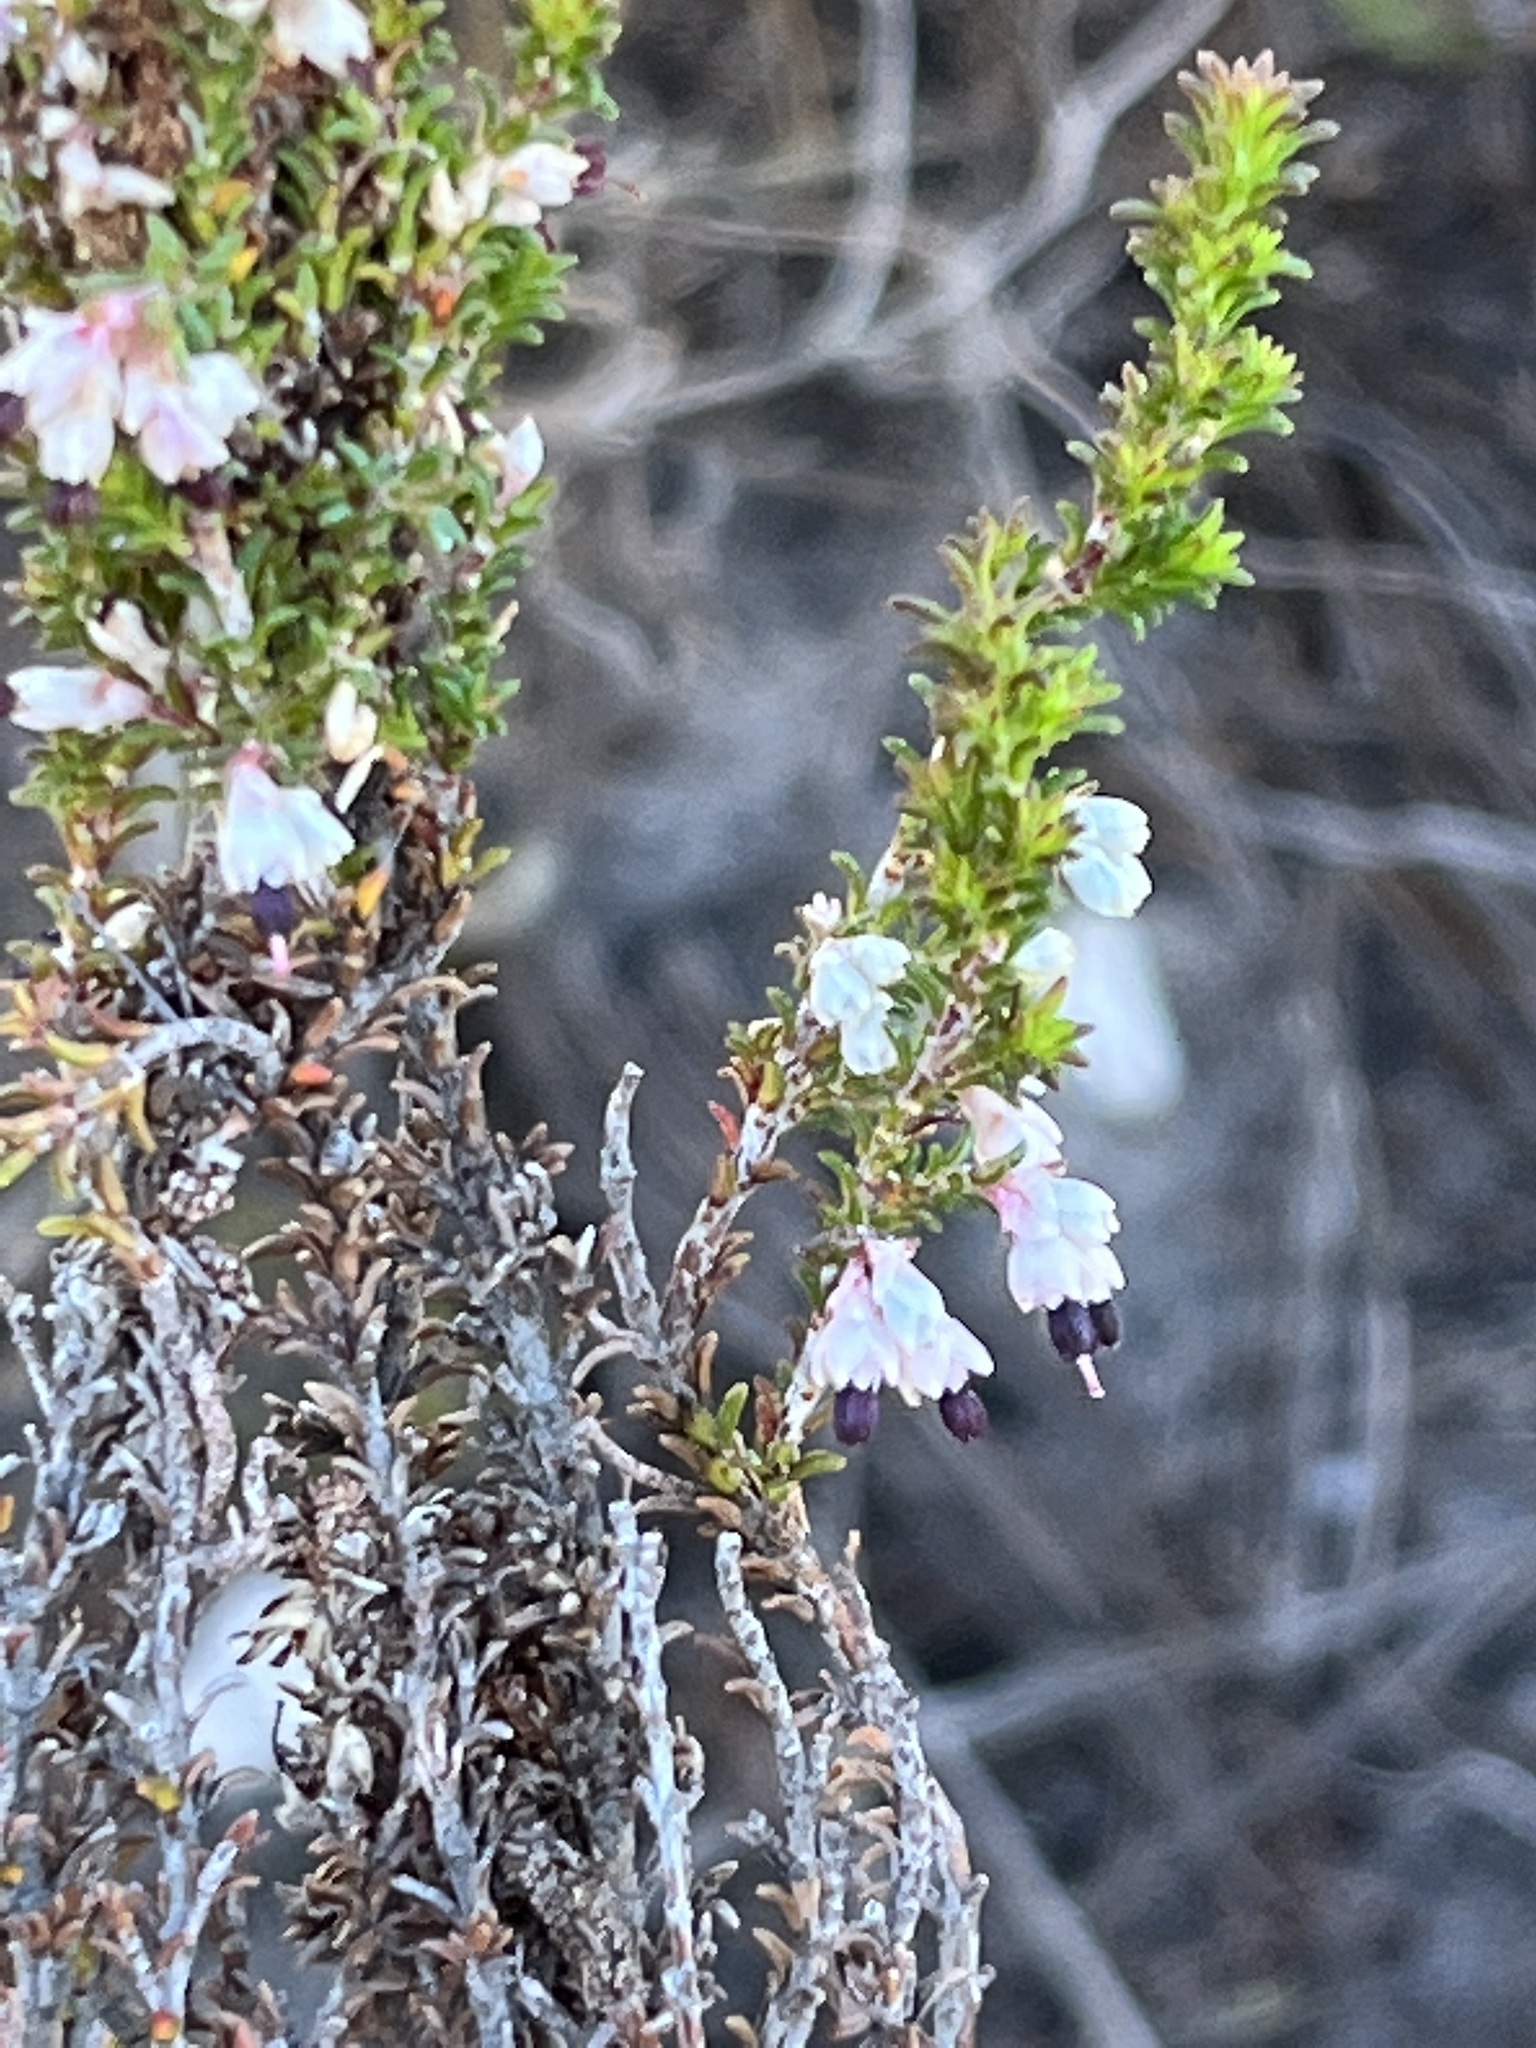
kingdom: Plantae
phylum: Tracheophyta
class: Magnoliopsida
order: Ericales
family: Ericaceae
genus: Erica
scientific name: Erica imbricata
